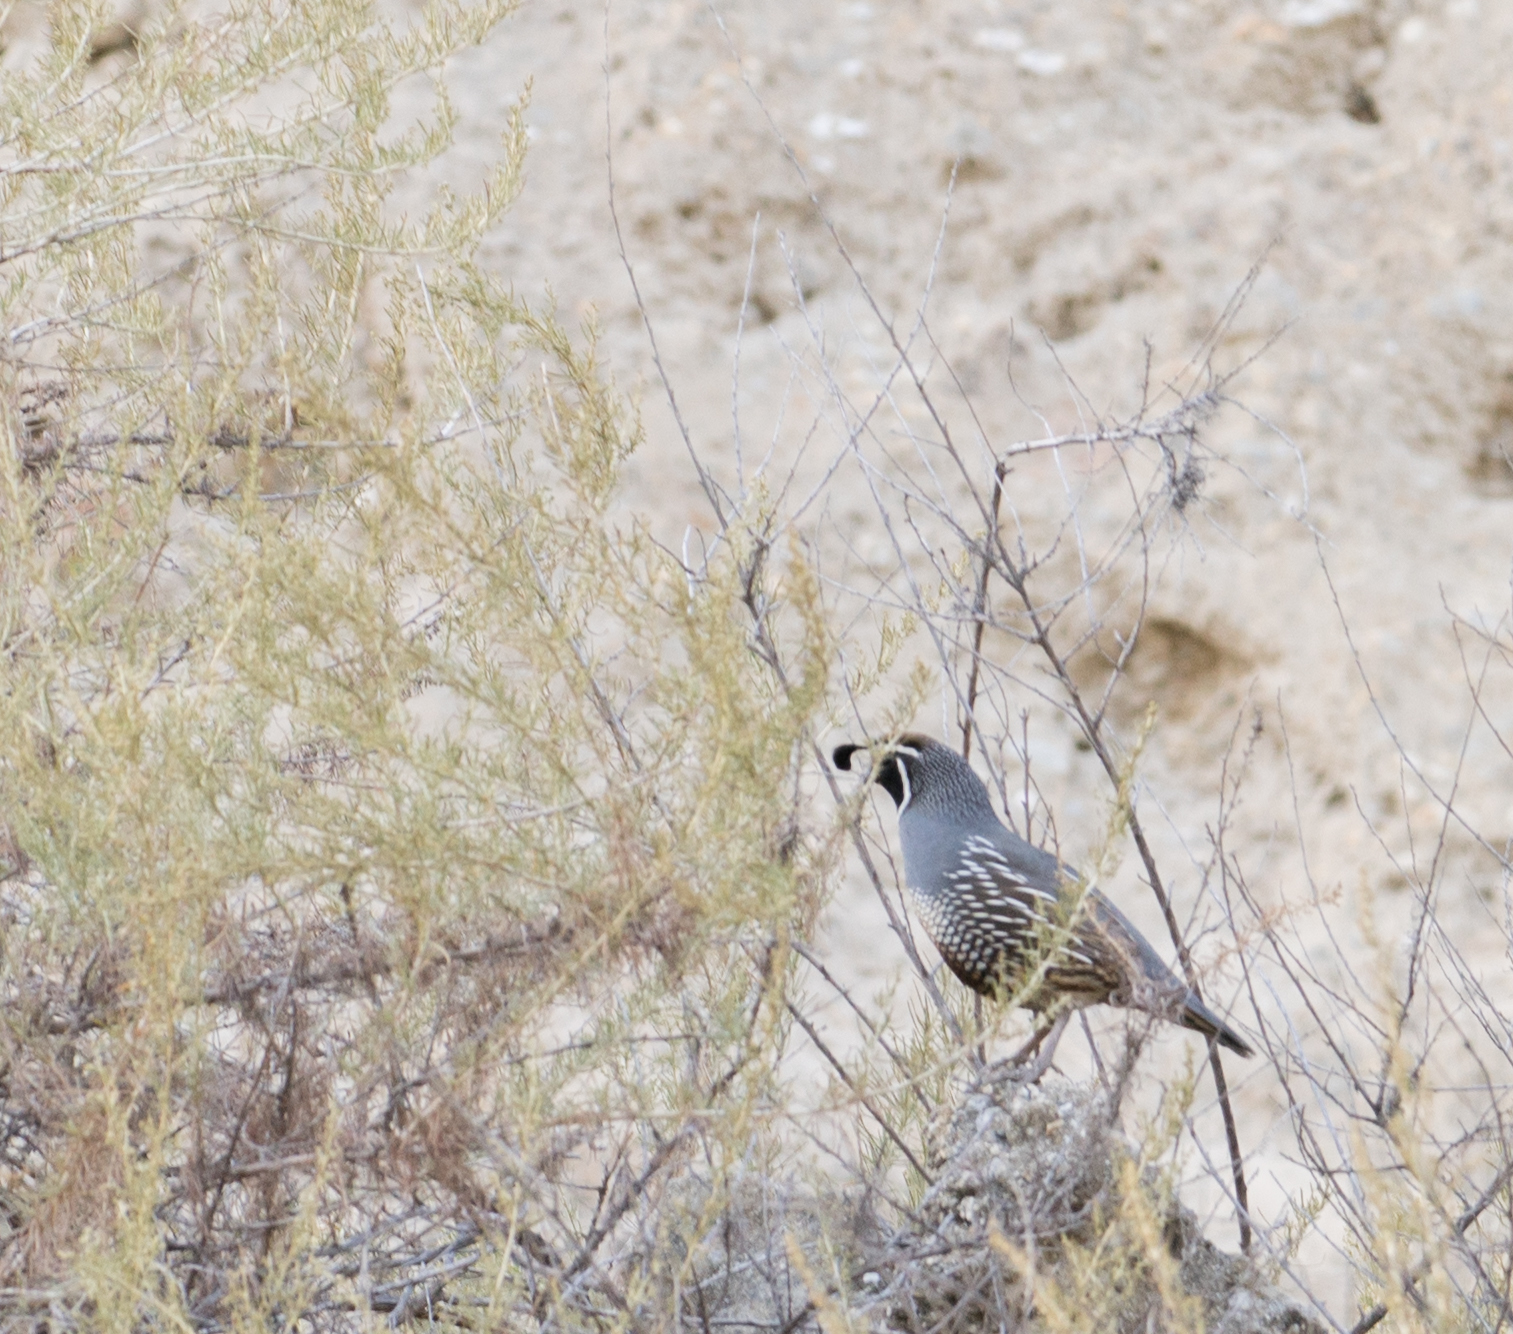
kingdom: Animalia
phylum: Chordata
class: Aves
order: Galliformes
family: Odontophoridae
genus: Callipepla
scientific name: Callipepla californica
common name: California quail
